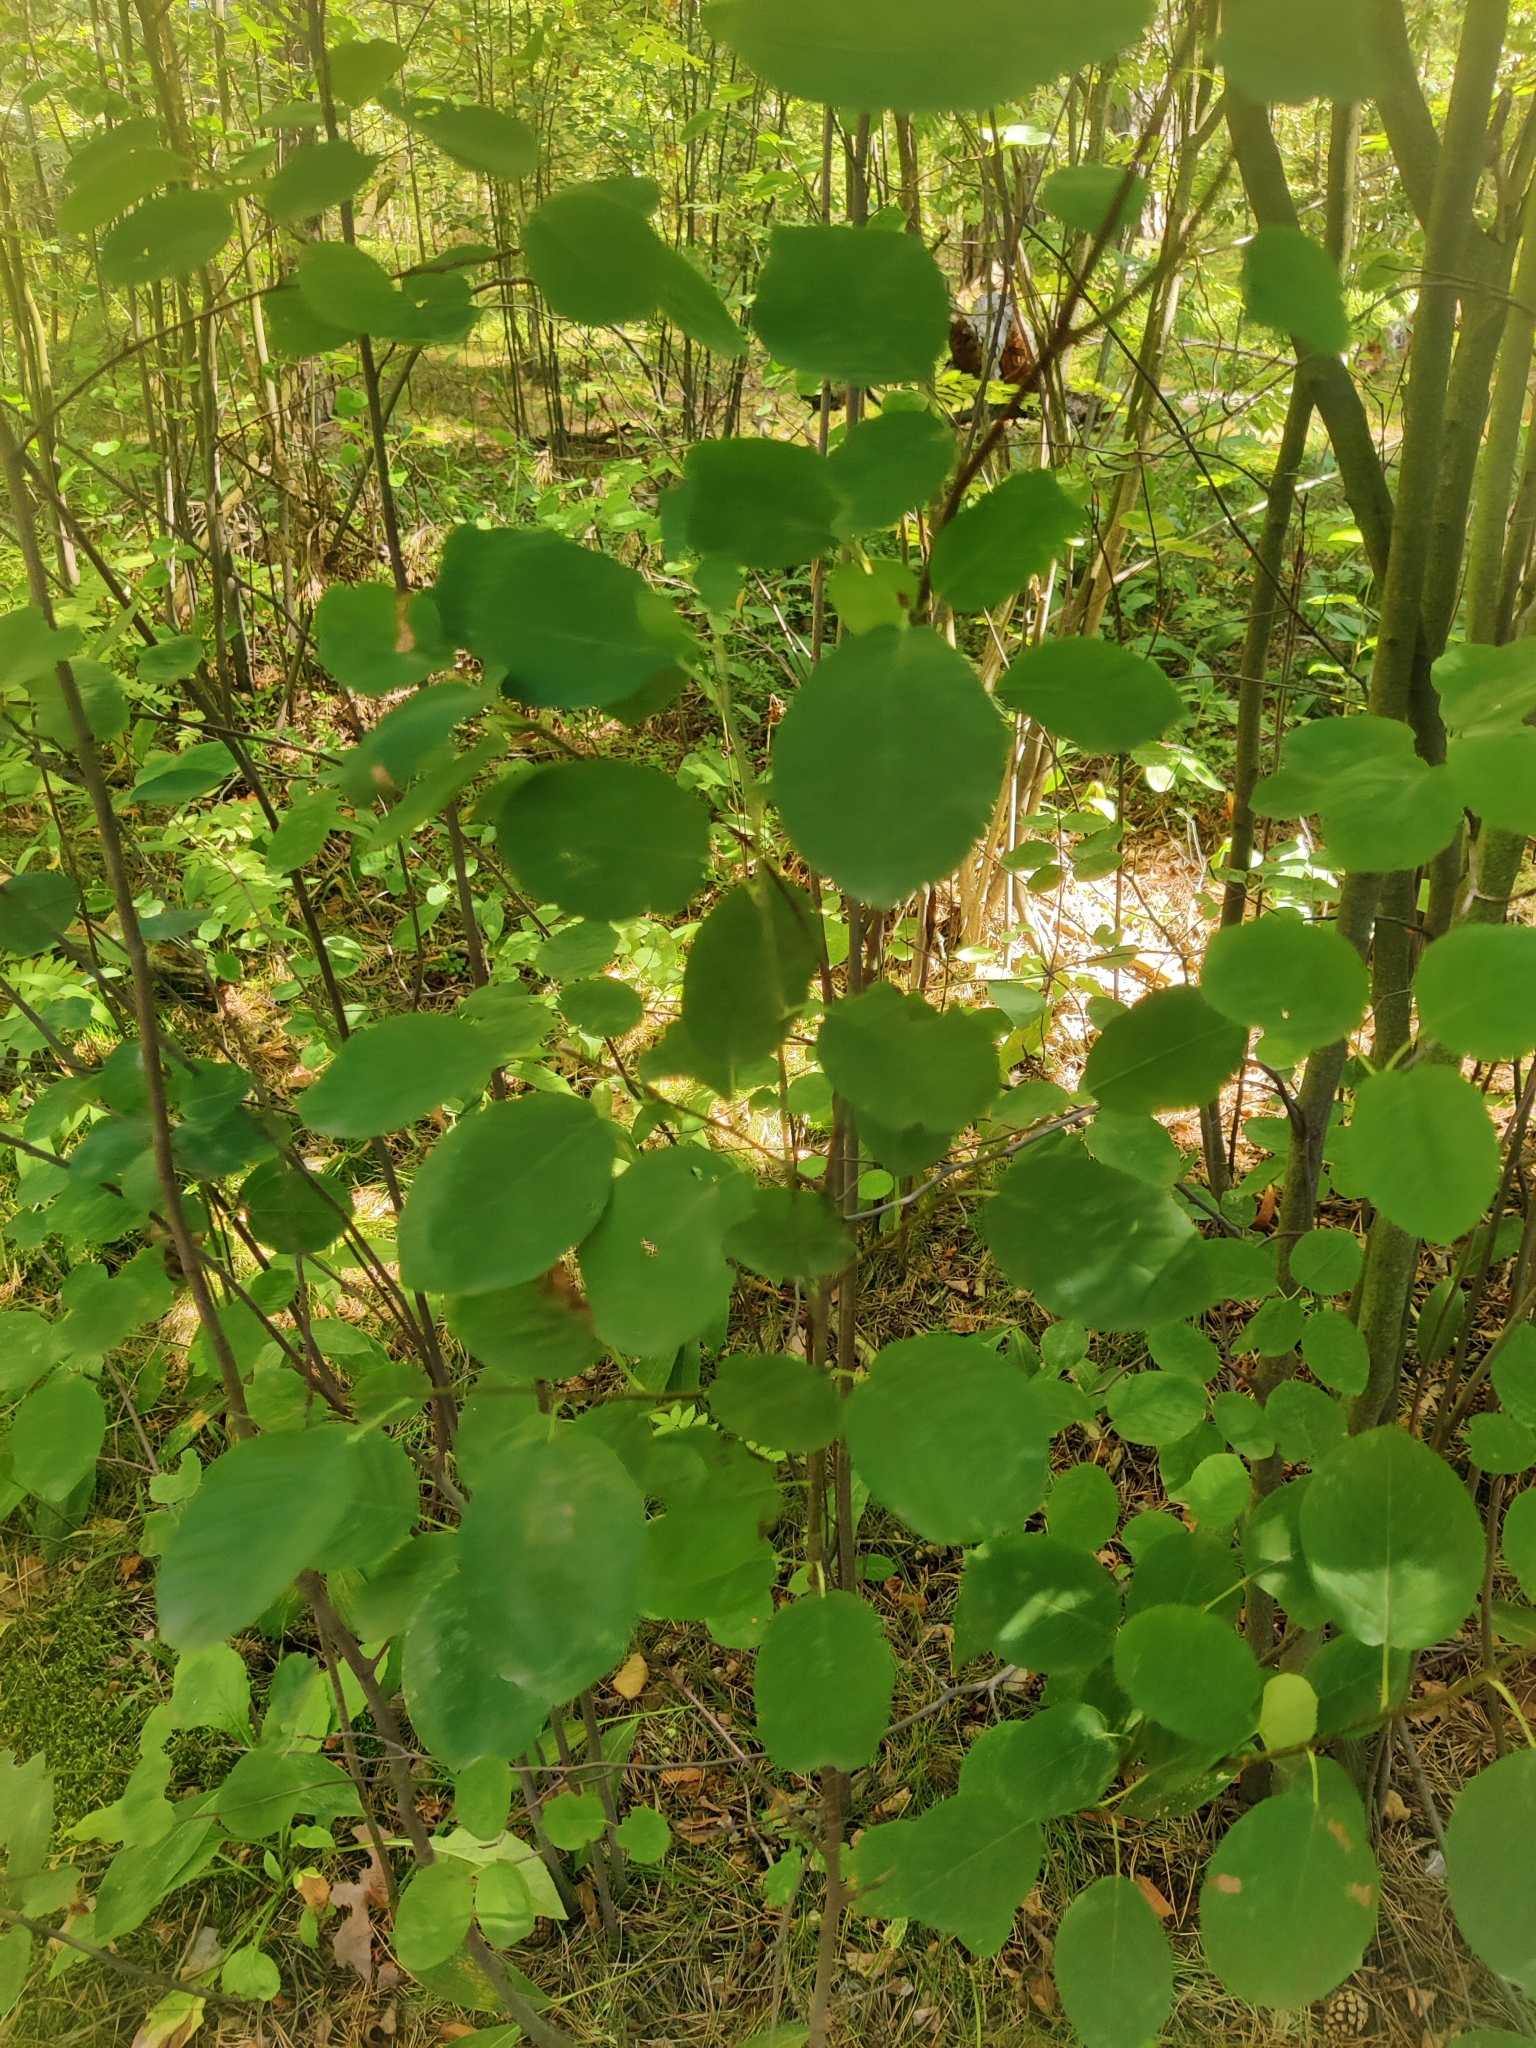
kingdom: Plantae
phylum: Tracheophyta
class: Magnoliopsida
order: Rosales
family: Rosaceae
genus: Amelanchier
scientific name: Amelanchier
